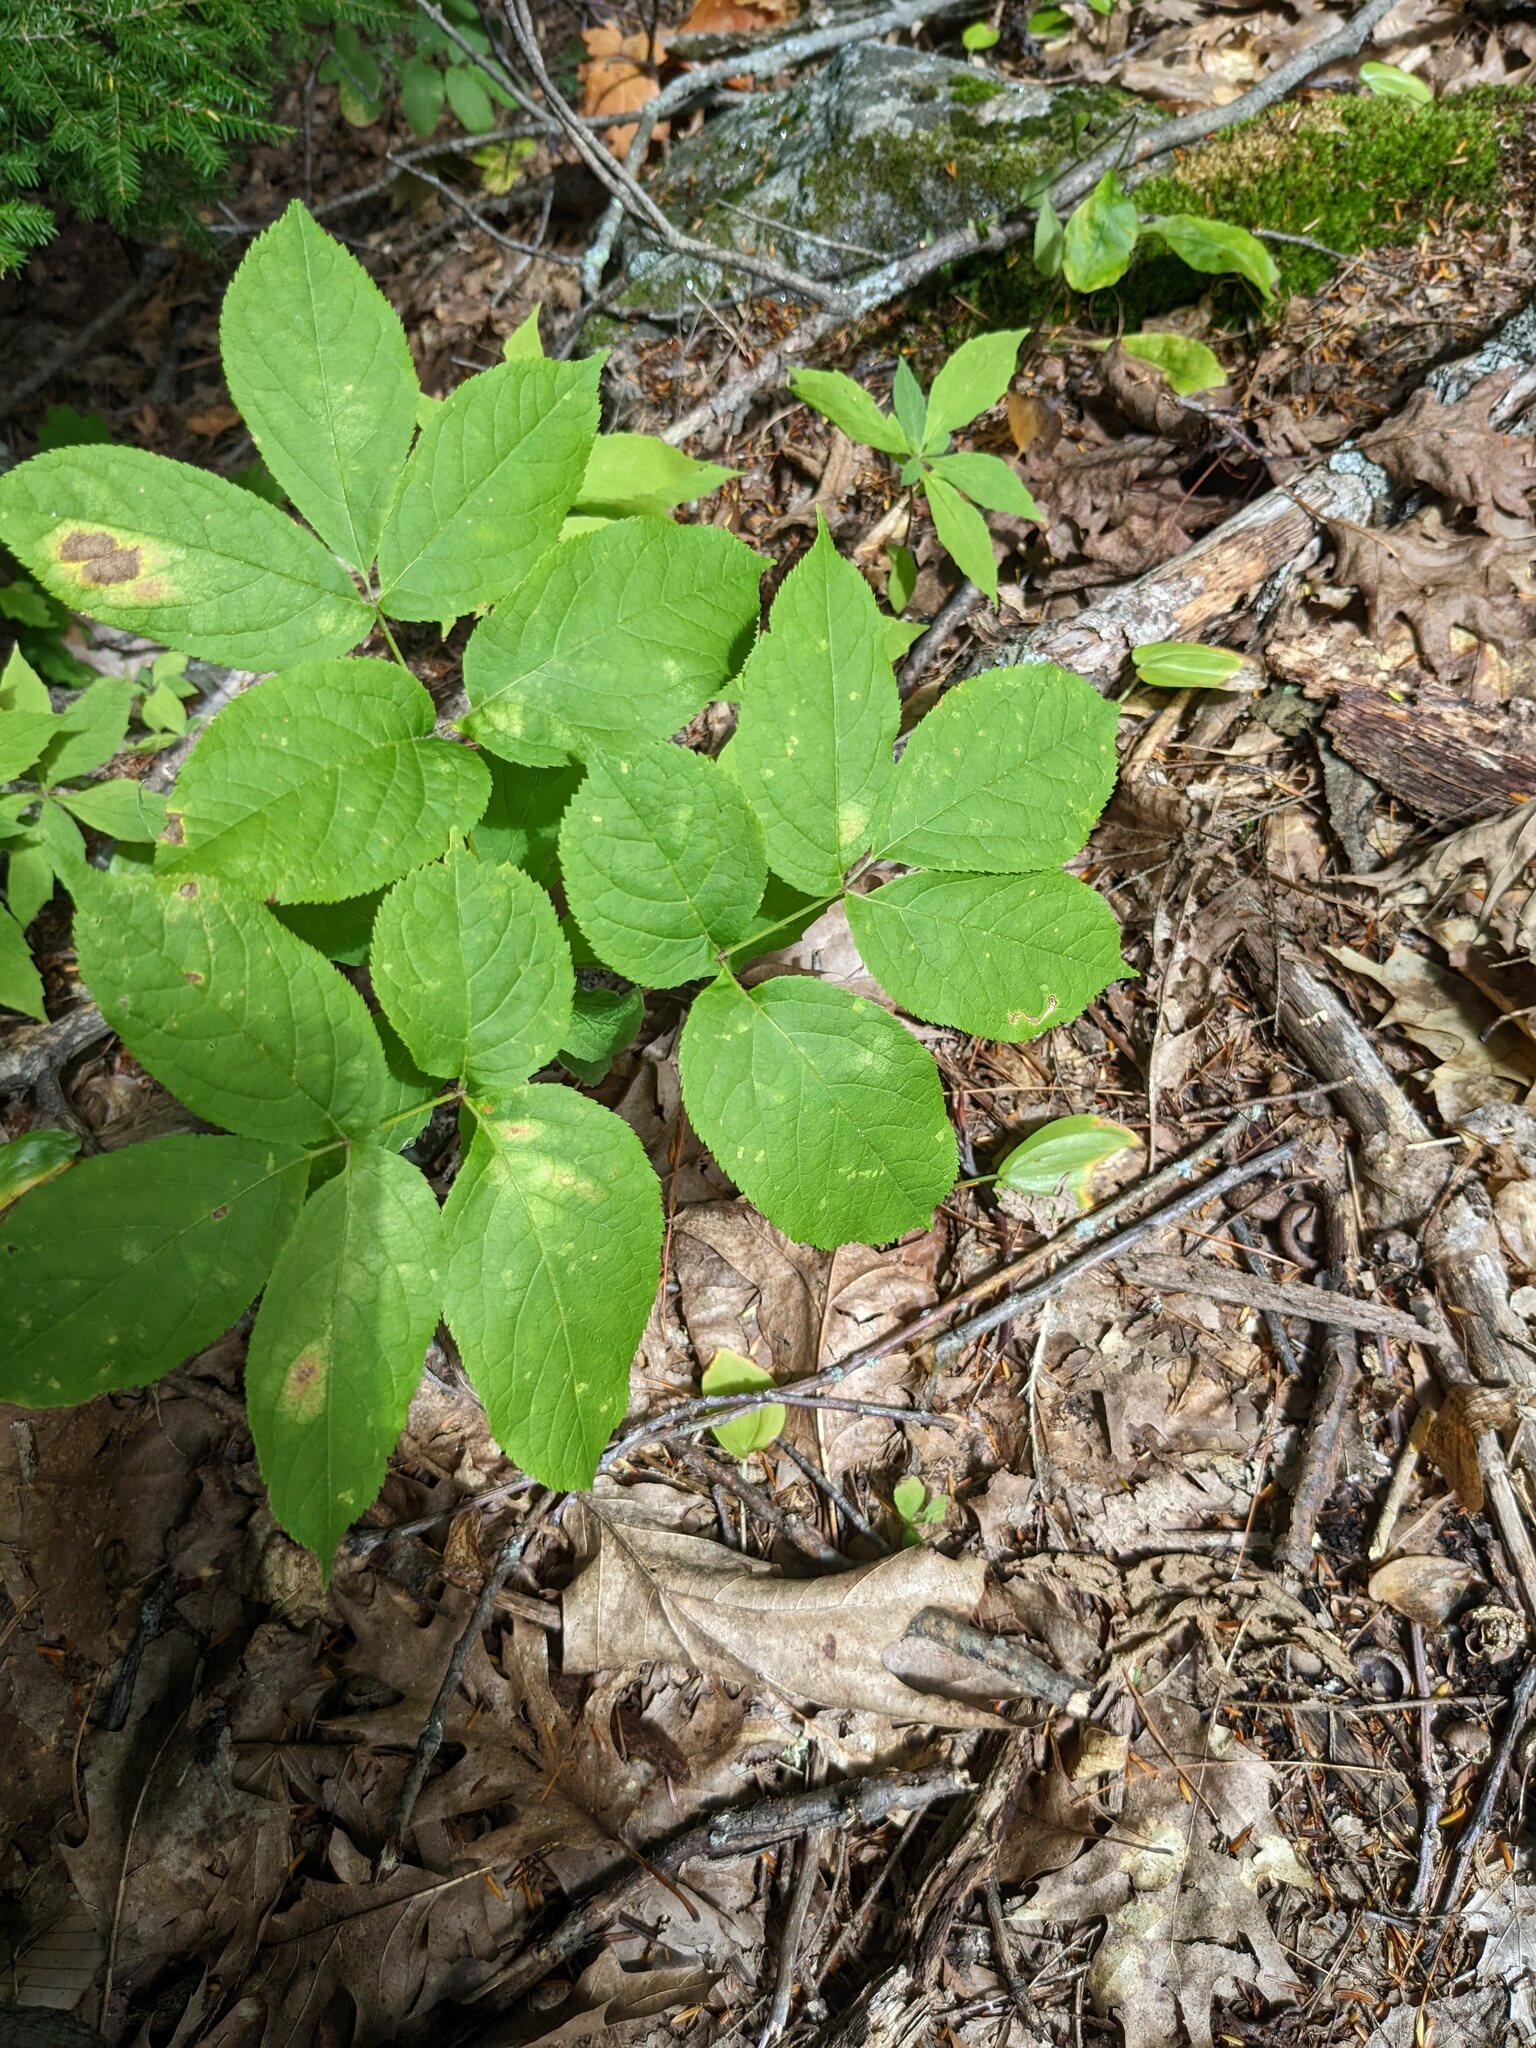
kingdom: Plantae
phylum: Tracheophyta
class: Magnoliopsida
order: Apiales
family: Araliaceae
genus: Aralia
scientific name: Aralia nudicaulis
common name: Wild sarsaparilla
